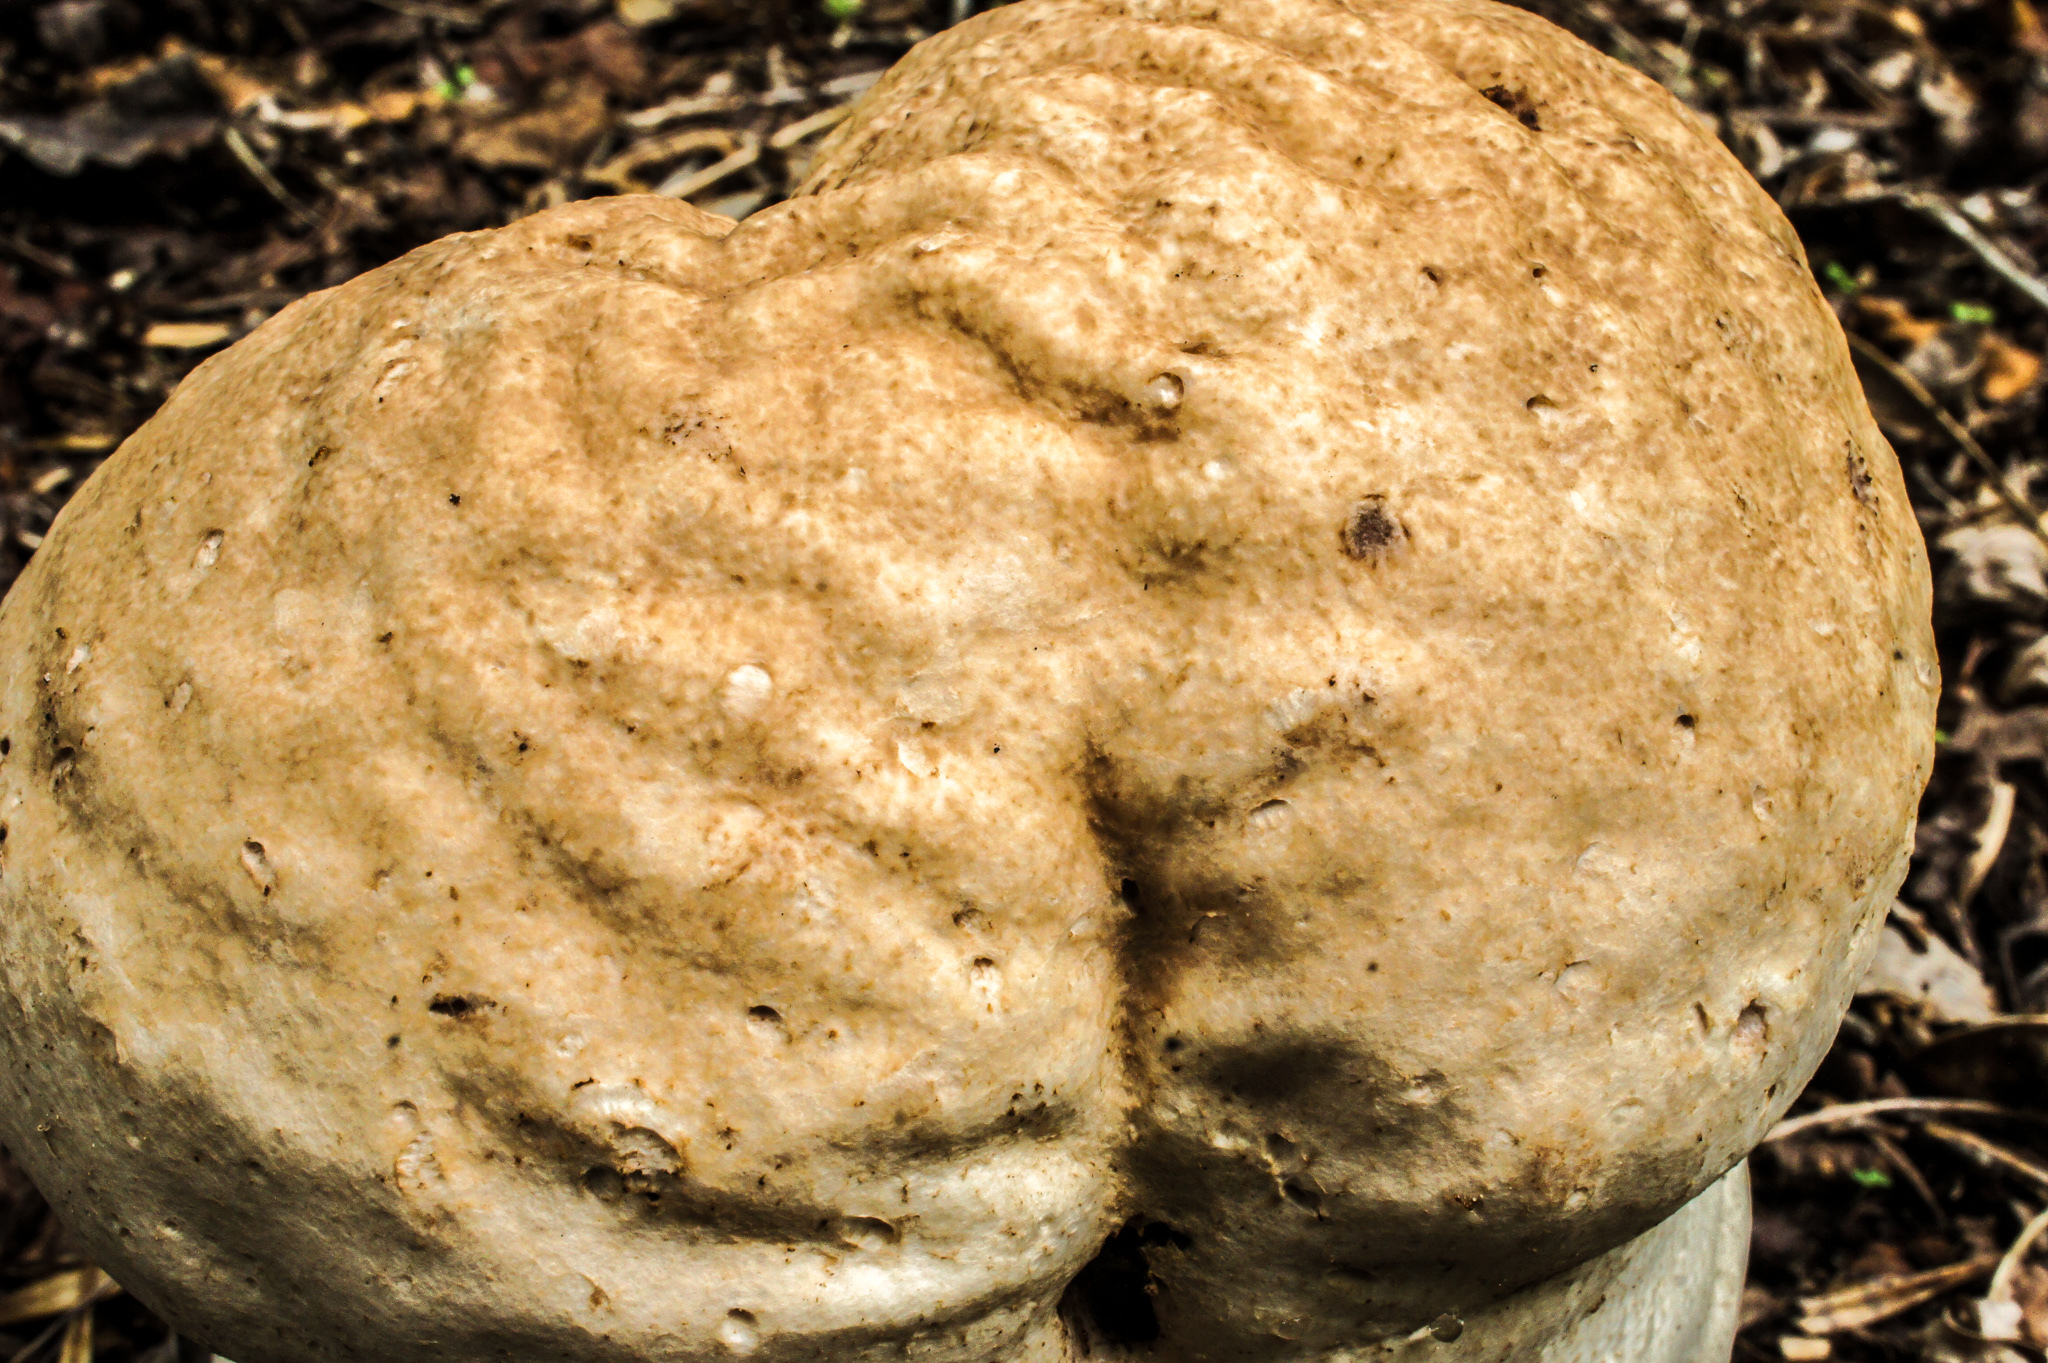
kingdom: Fungi
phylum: Basidiomycota
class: Agaricomycetes
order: Agaricales
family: Lycoperdaceae
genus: Calvatia
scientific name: Calvatia cyathiformis
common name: Purple-spored puffball
